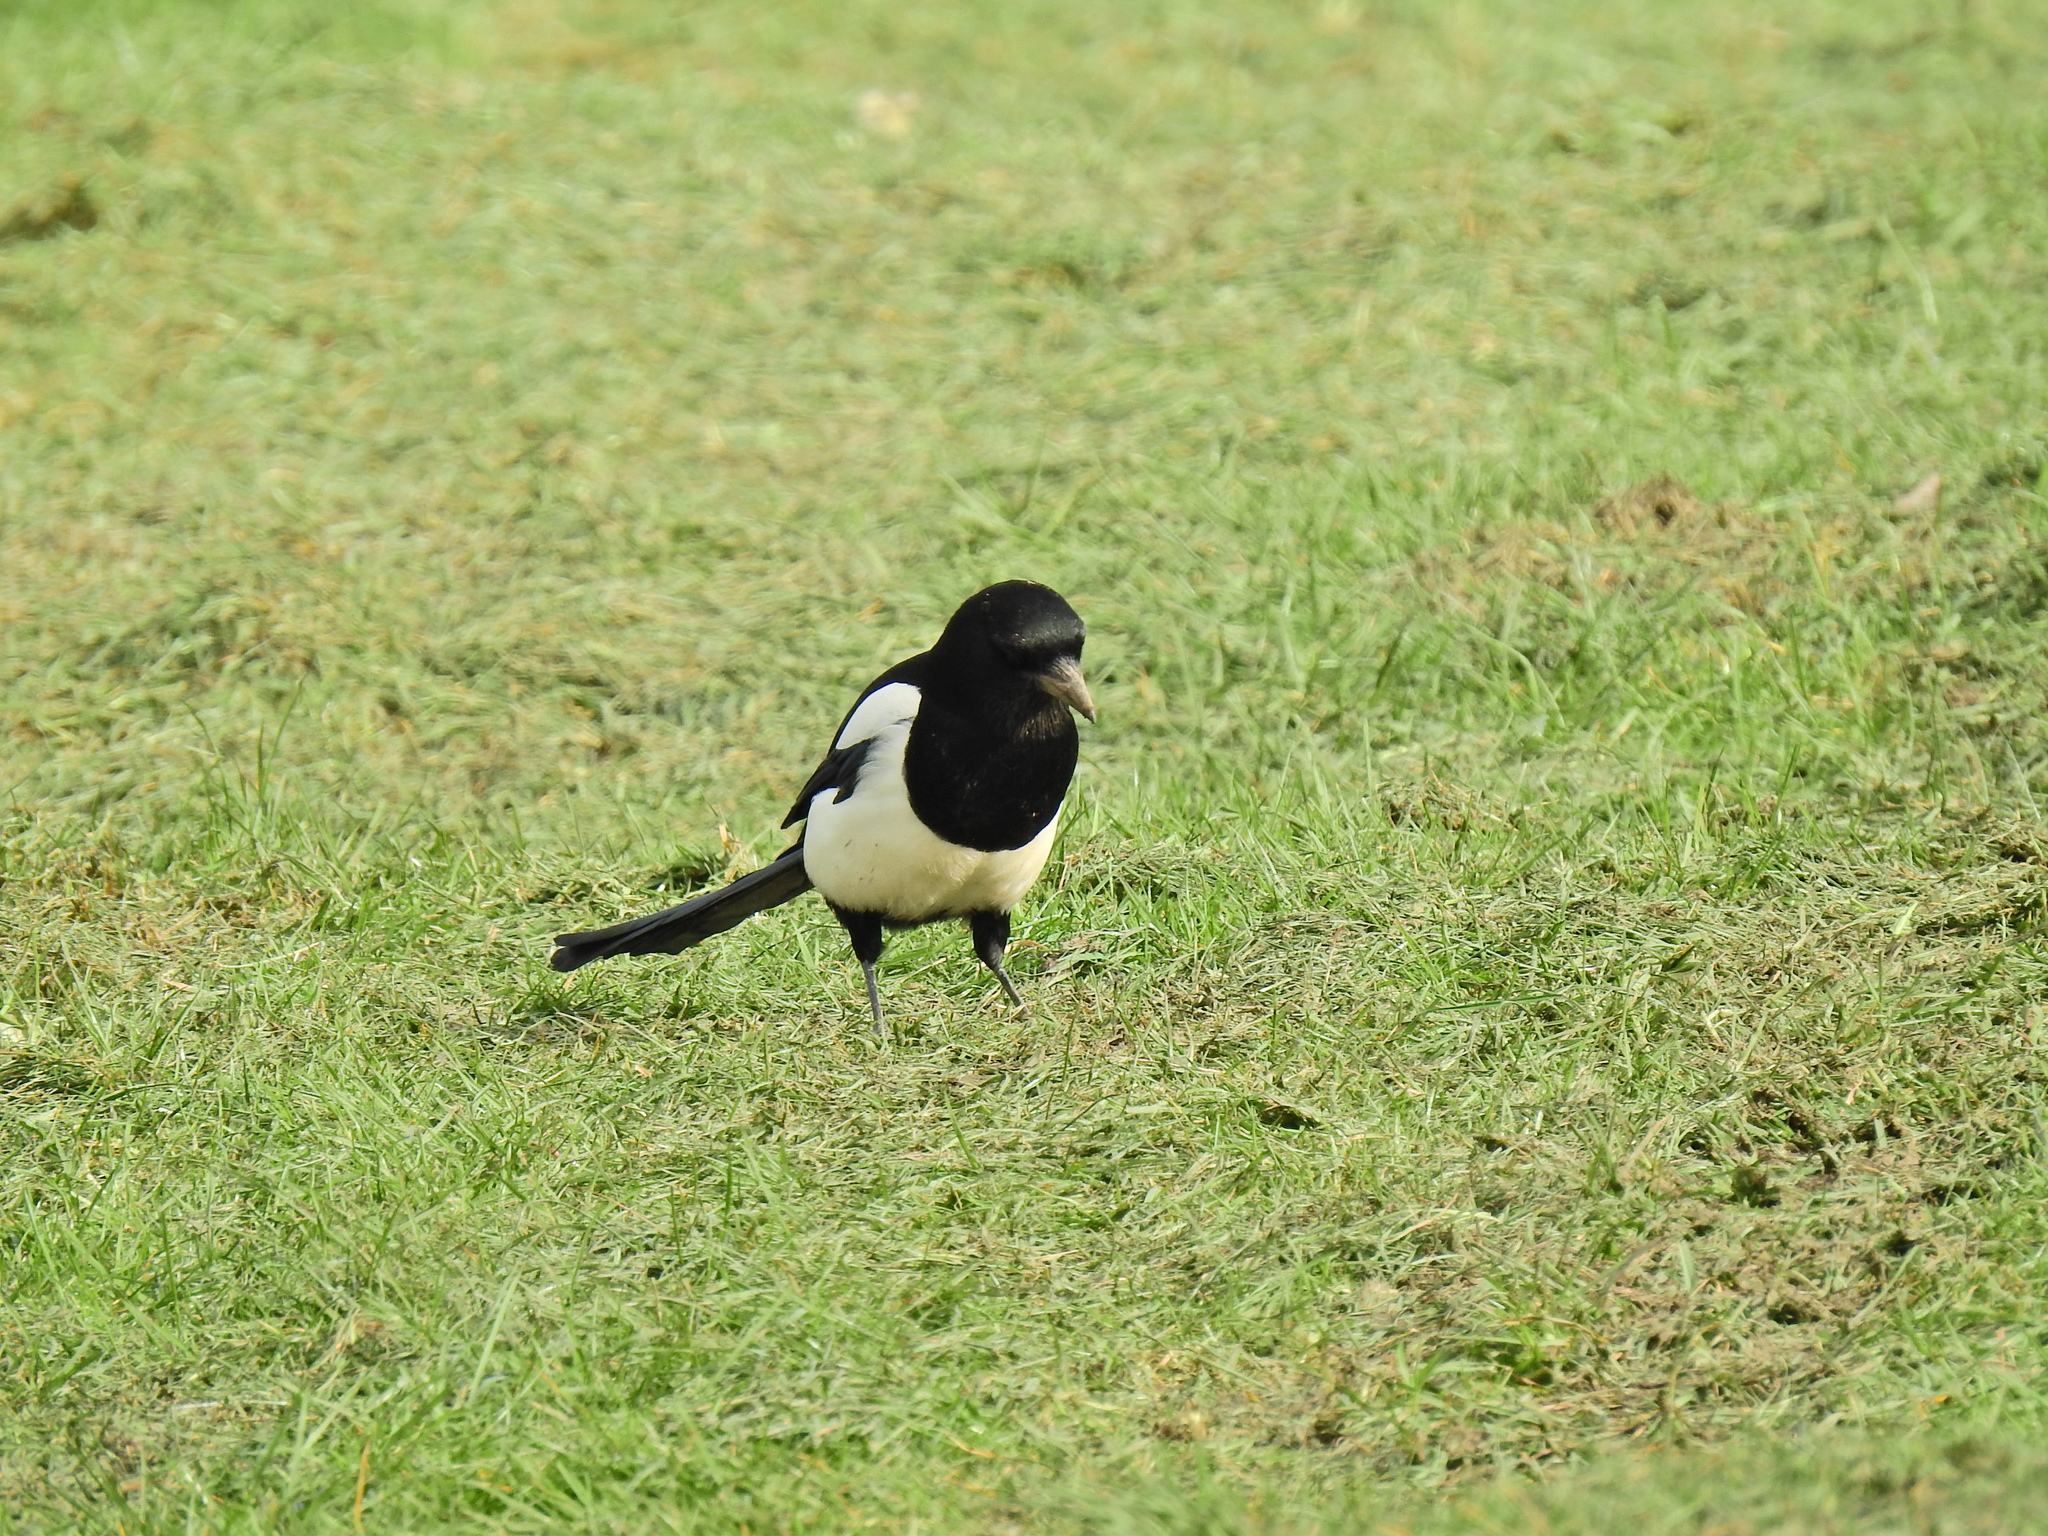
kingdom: Animalia
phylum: Chordata
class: Aves
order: Passeriformes
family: Corvidae
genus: Pica
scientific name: Pica pica
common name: Eurasian magpie
